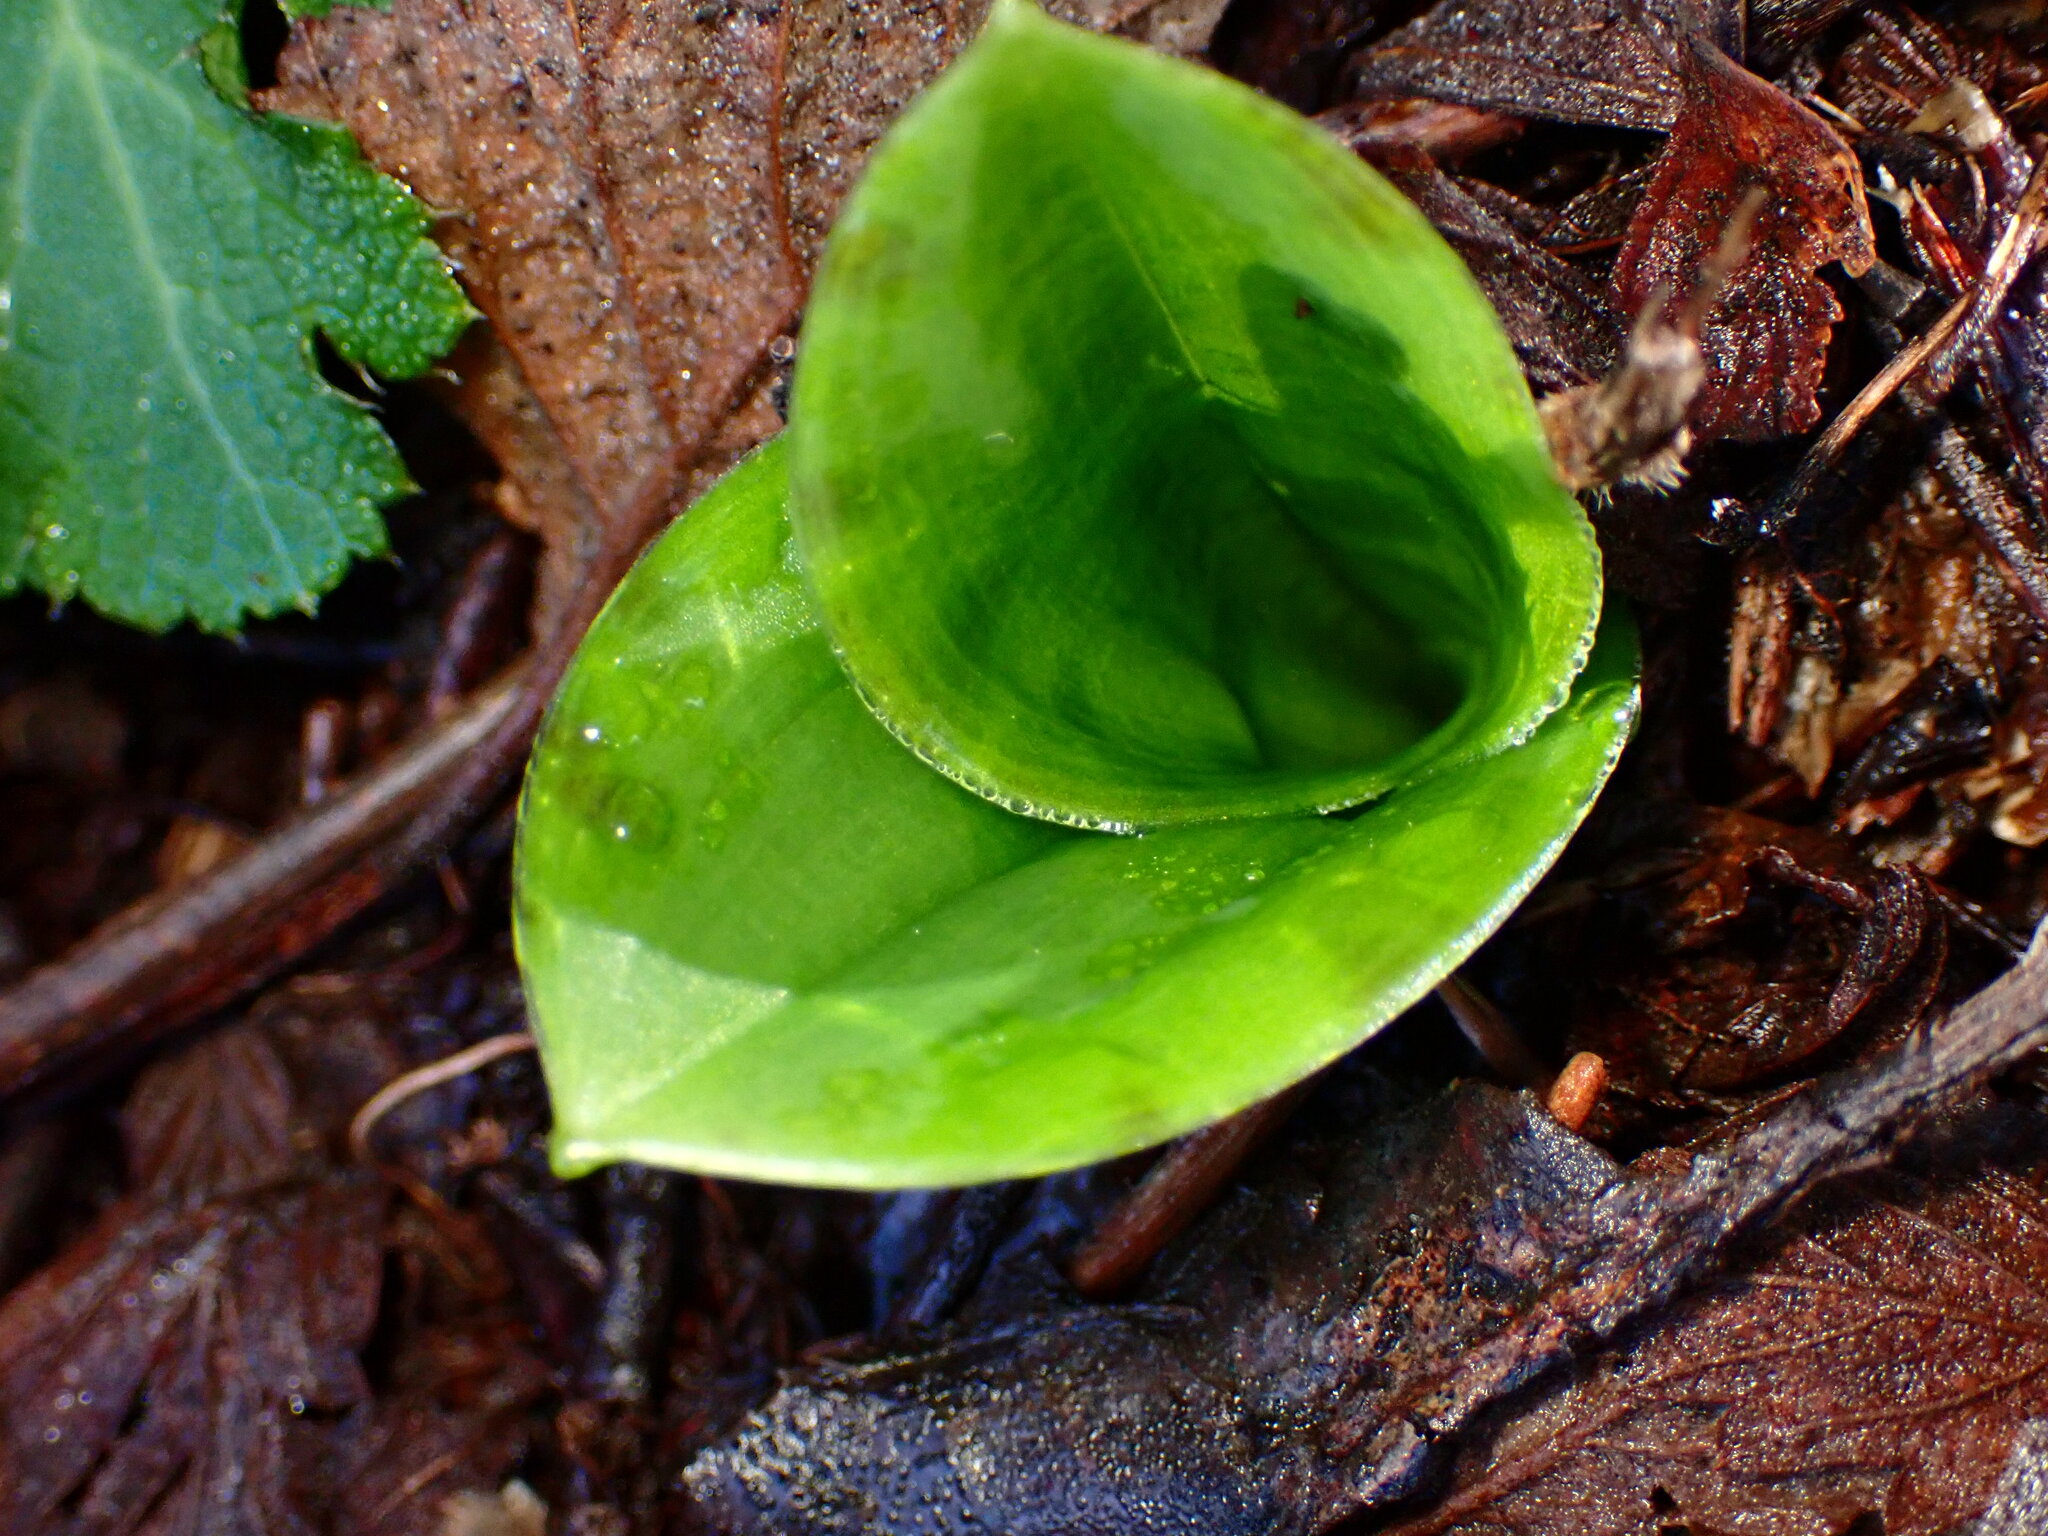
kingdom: Plantae
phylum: Tracheophyta
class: Liliopsida
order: Liliales
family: Liliaceae
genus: Scoliopus
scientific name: Scoliopus bigelovii
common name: Foetid adder's-tongue
